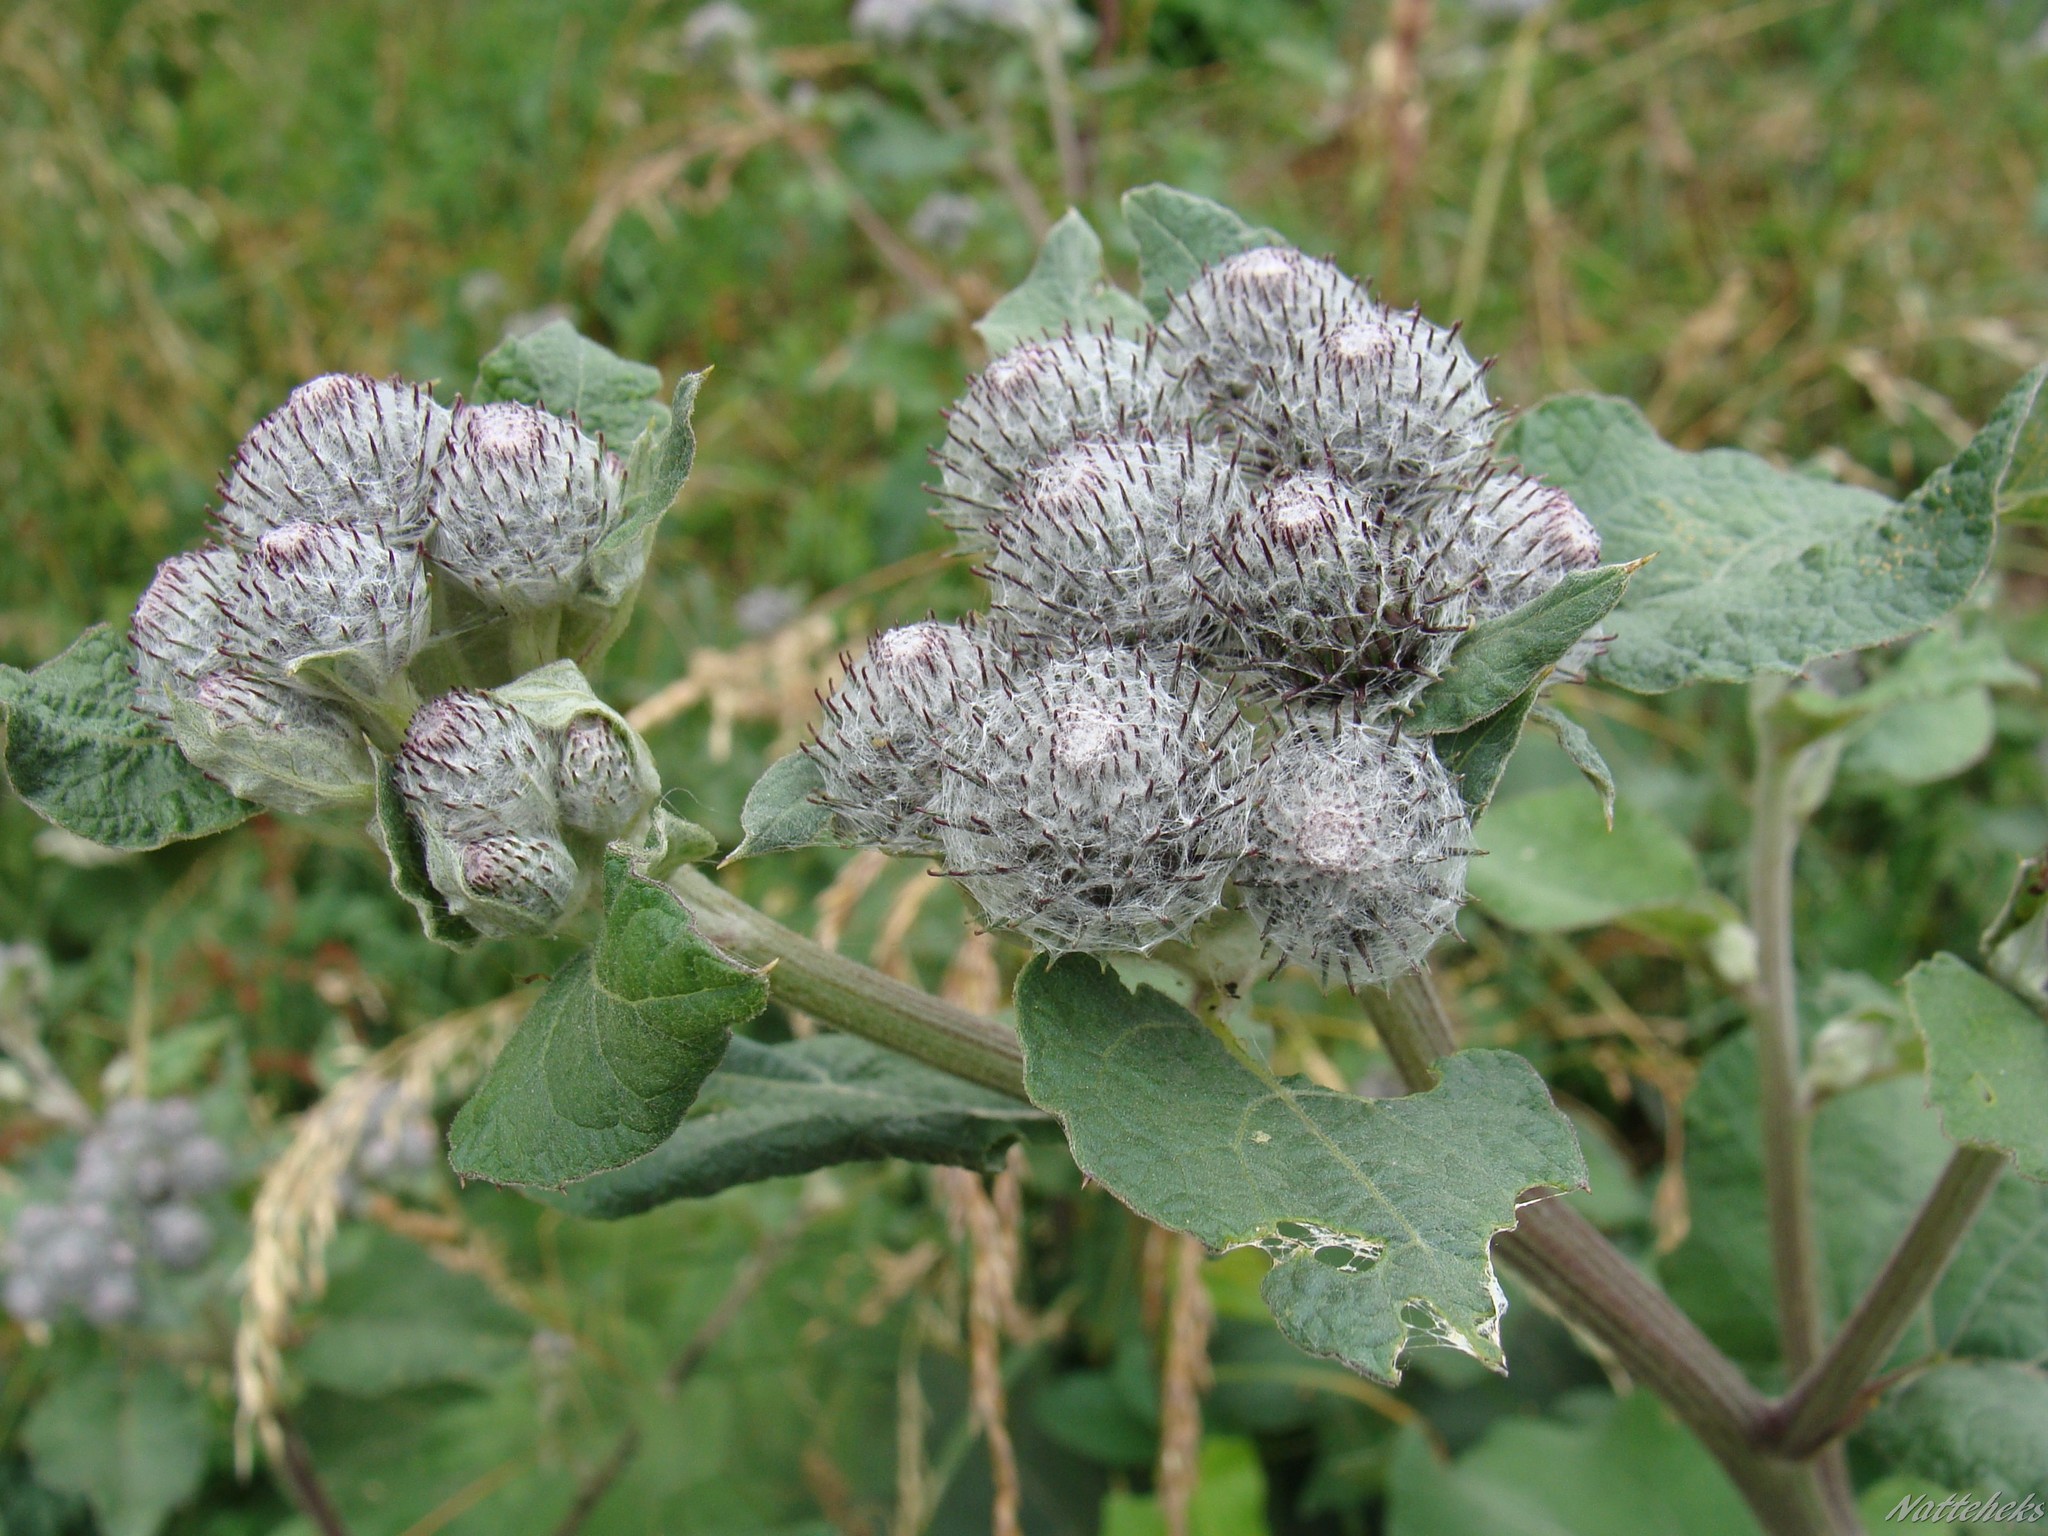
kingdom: Plantae
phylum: Tracheophyta
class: Magnoliopsida
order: Asterales
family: Asteraceae
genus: Arctium
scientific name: Arctium tomentosum
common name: Woolly burdock
